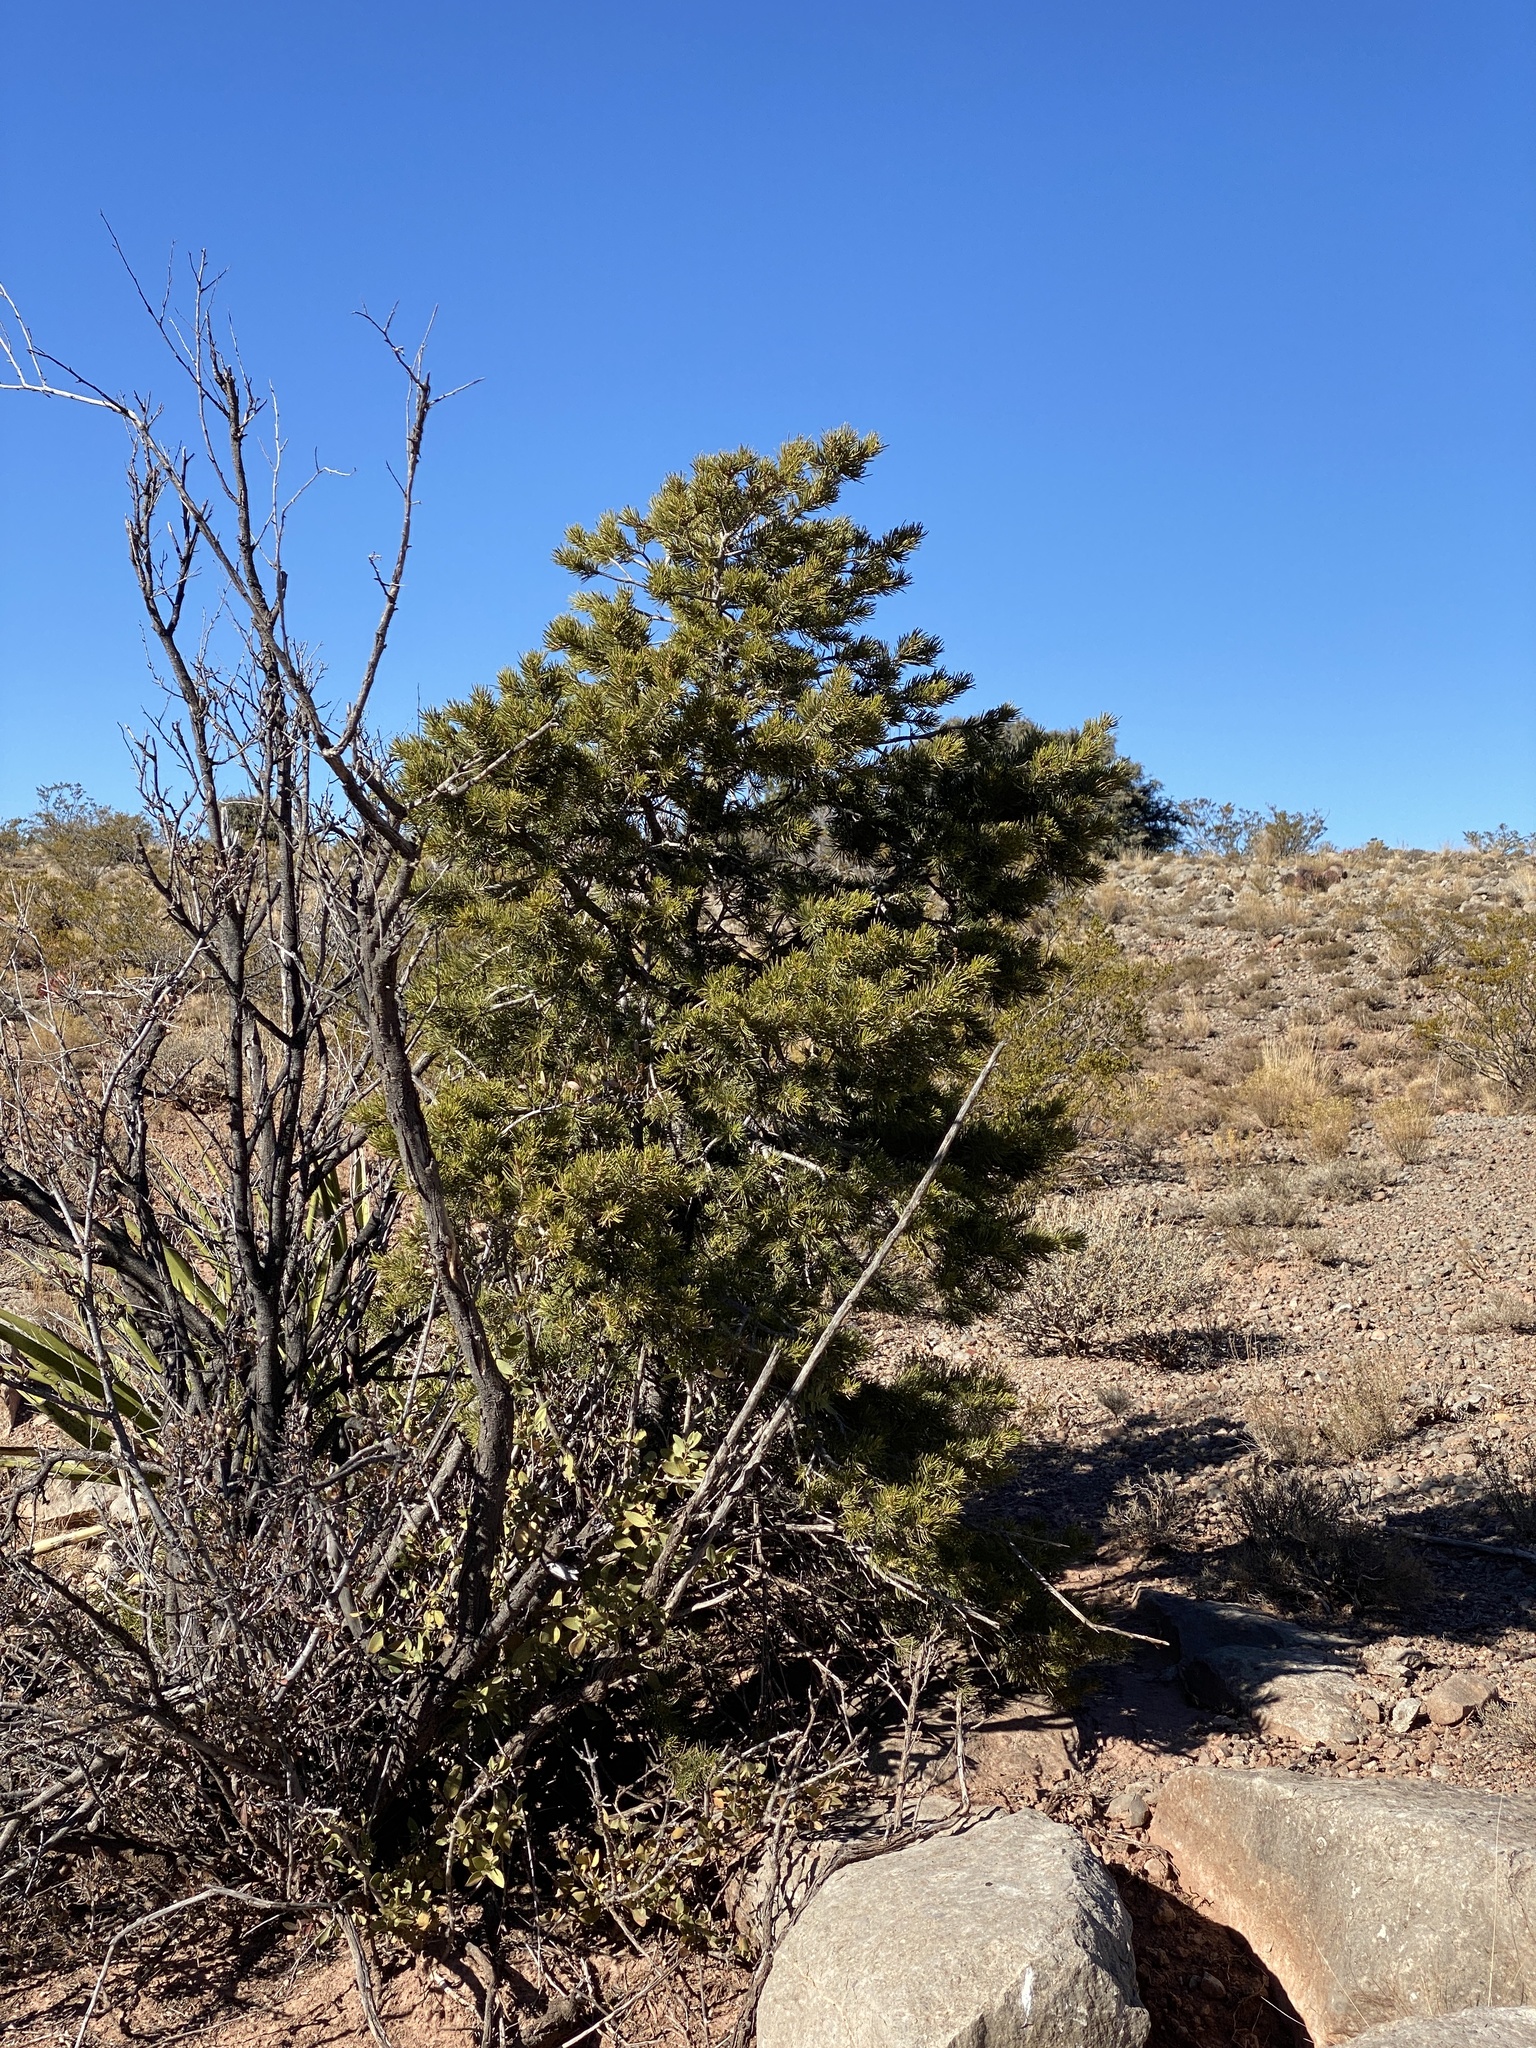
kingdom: Plantae
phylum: Tracheophyta
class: Pinopsida
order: Pinales
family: Pinaceae
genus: Pinus
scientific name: Pinus edulis
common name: Colorado pinyon
